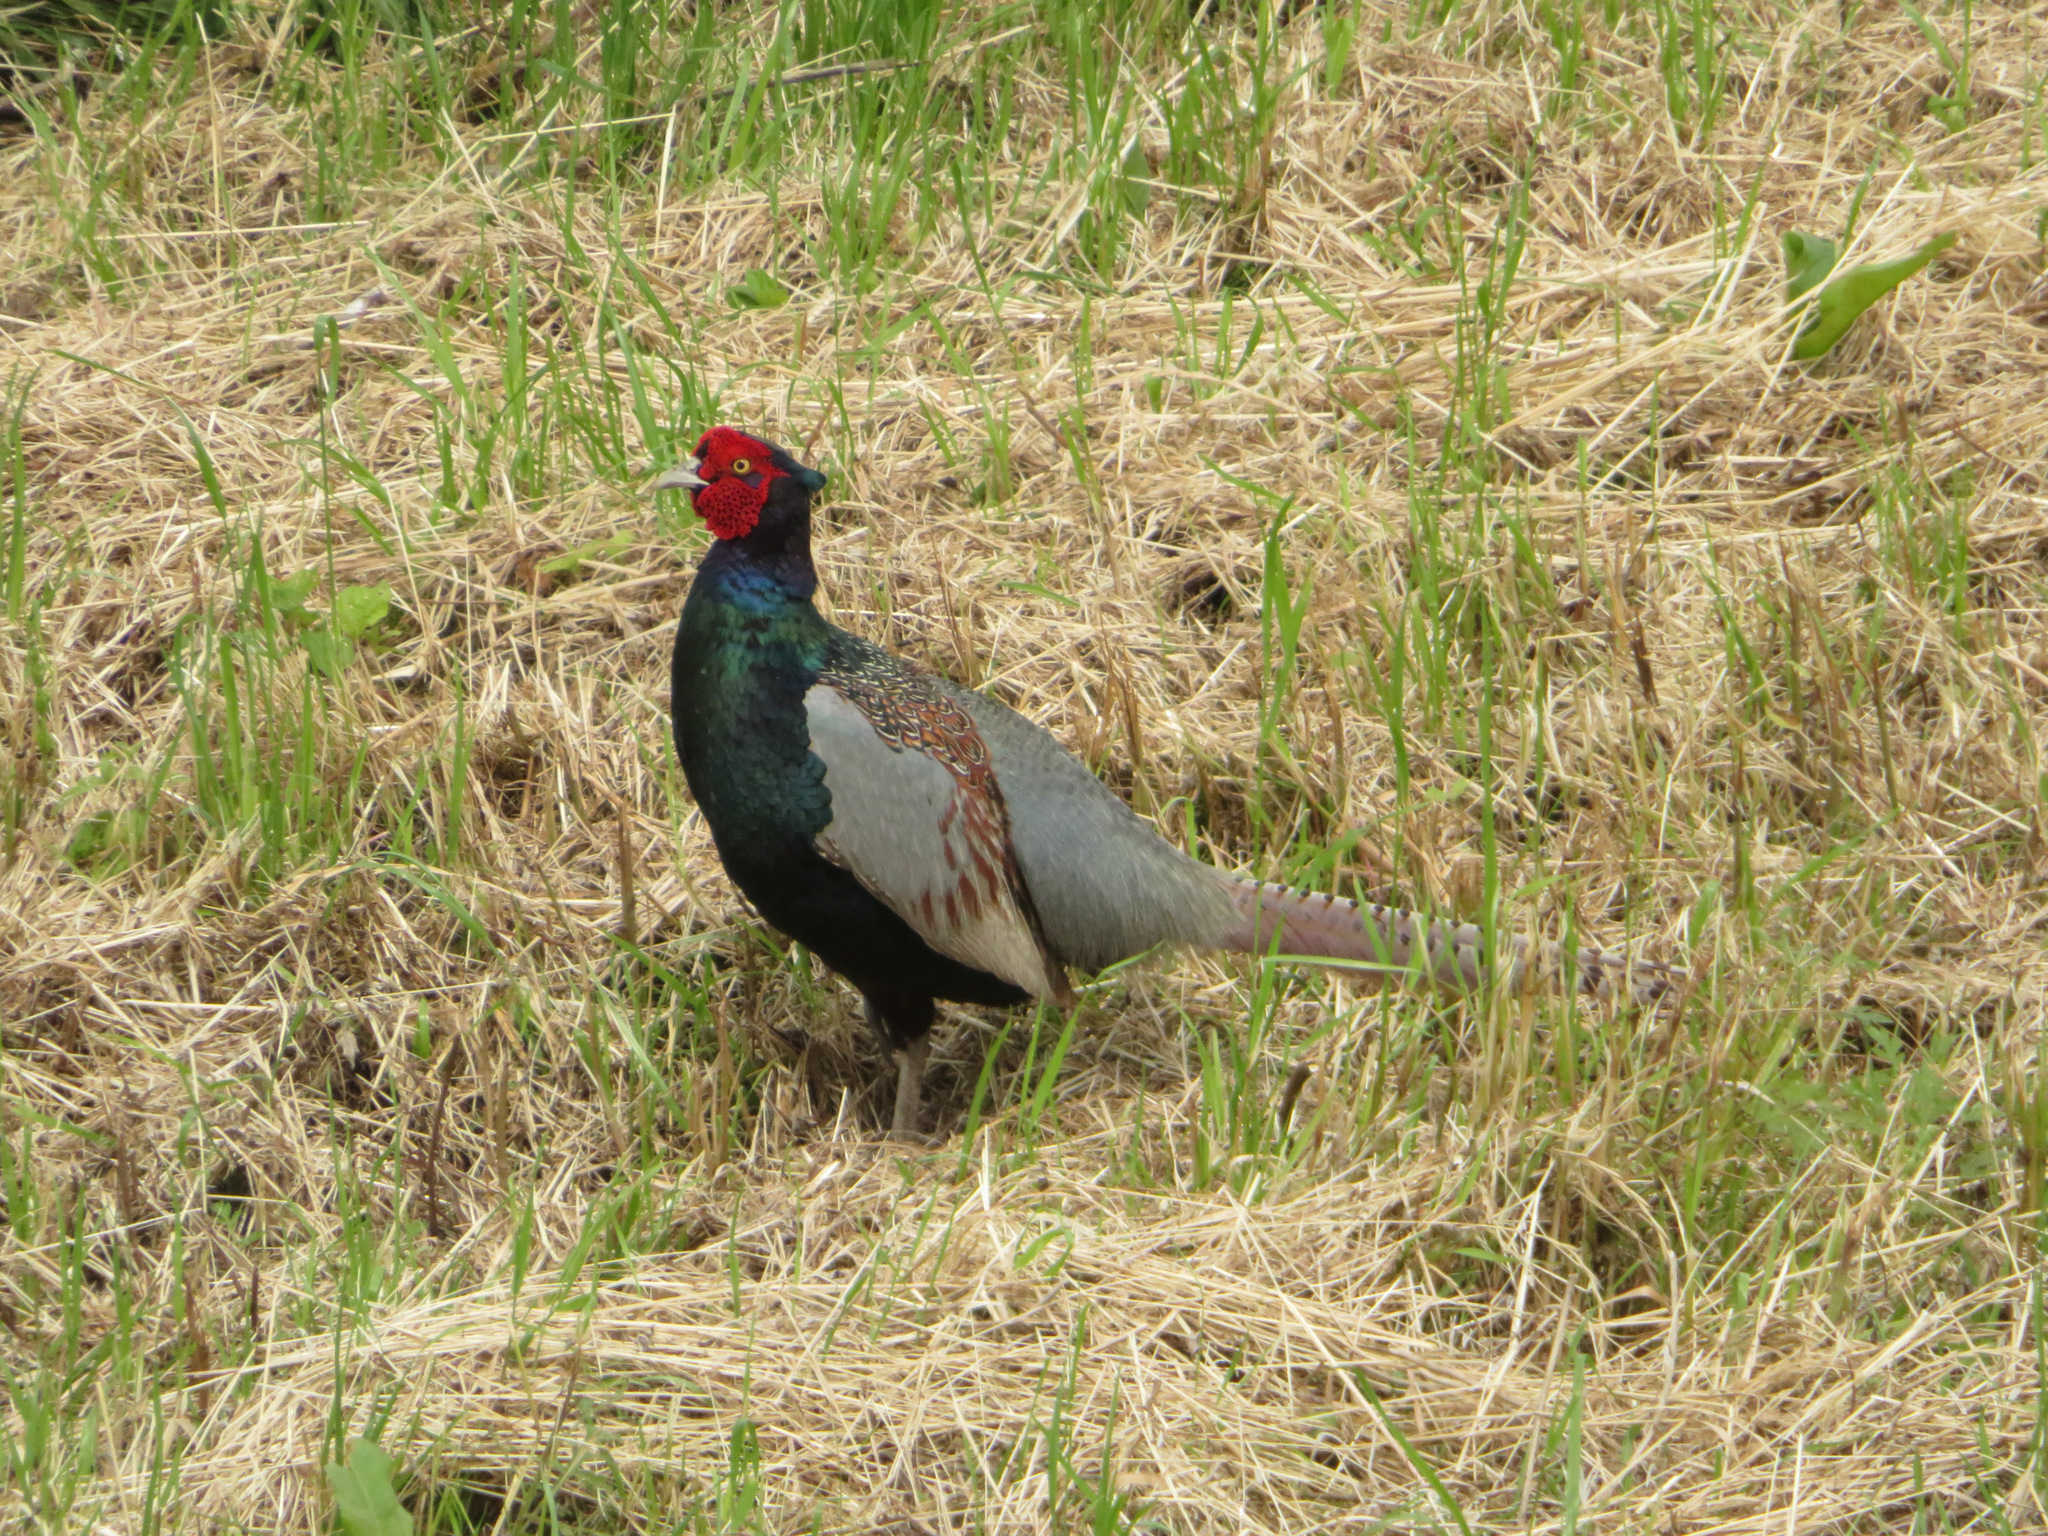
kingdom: Animalia
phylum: Chordata
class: Aves
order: Galliformes
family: Phasianidae
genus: Phasianus
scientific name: Phasianus versicolor
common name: Green pheasant
